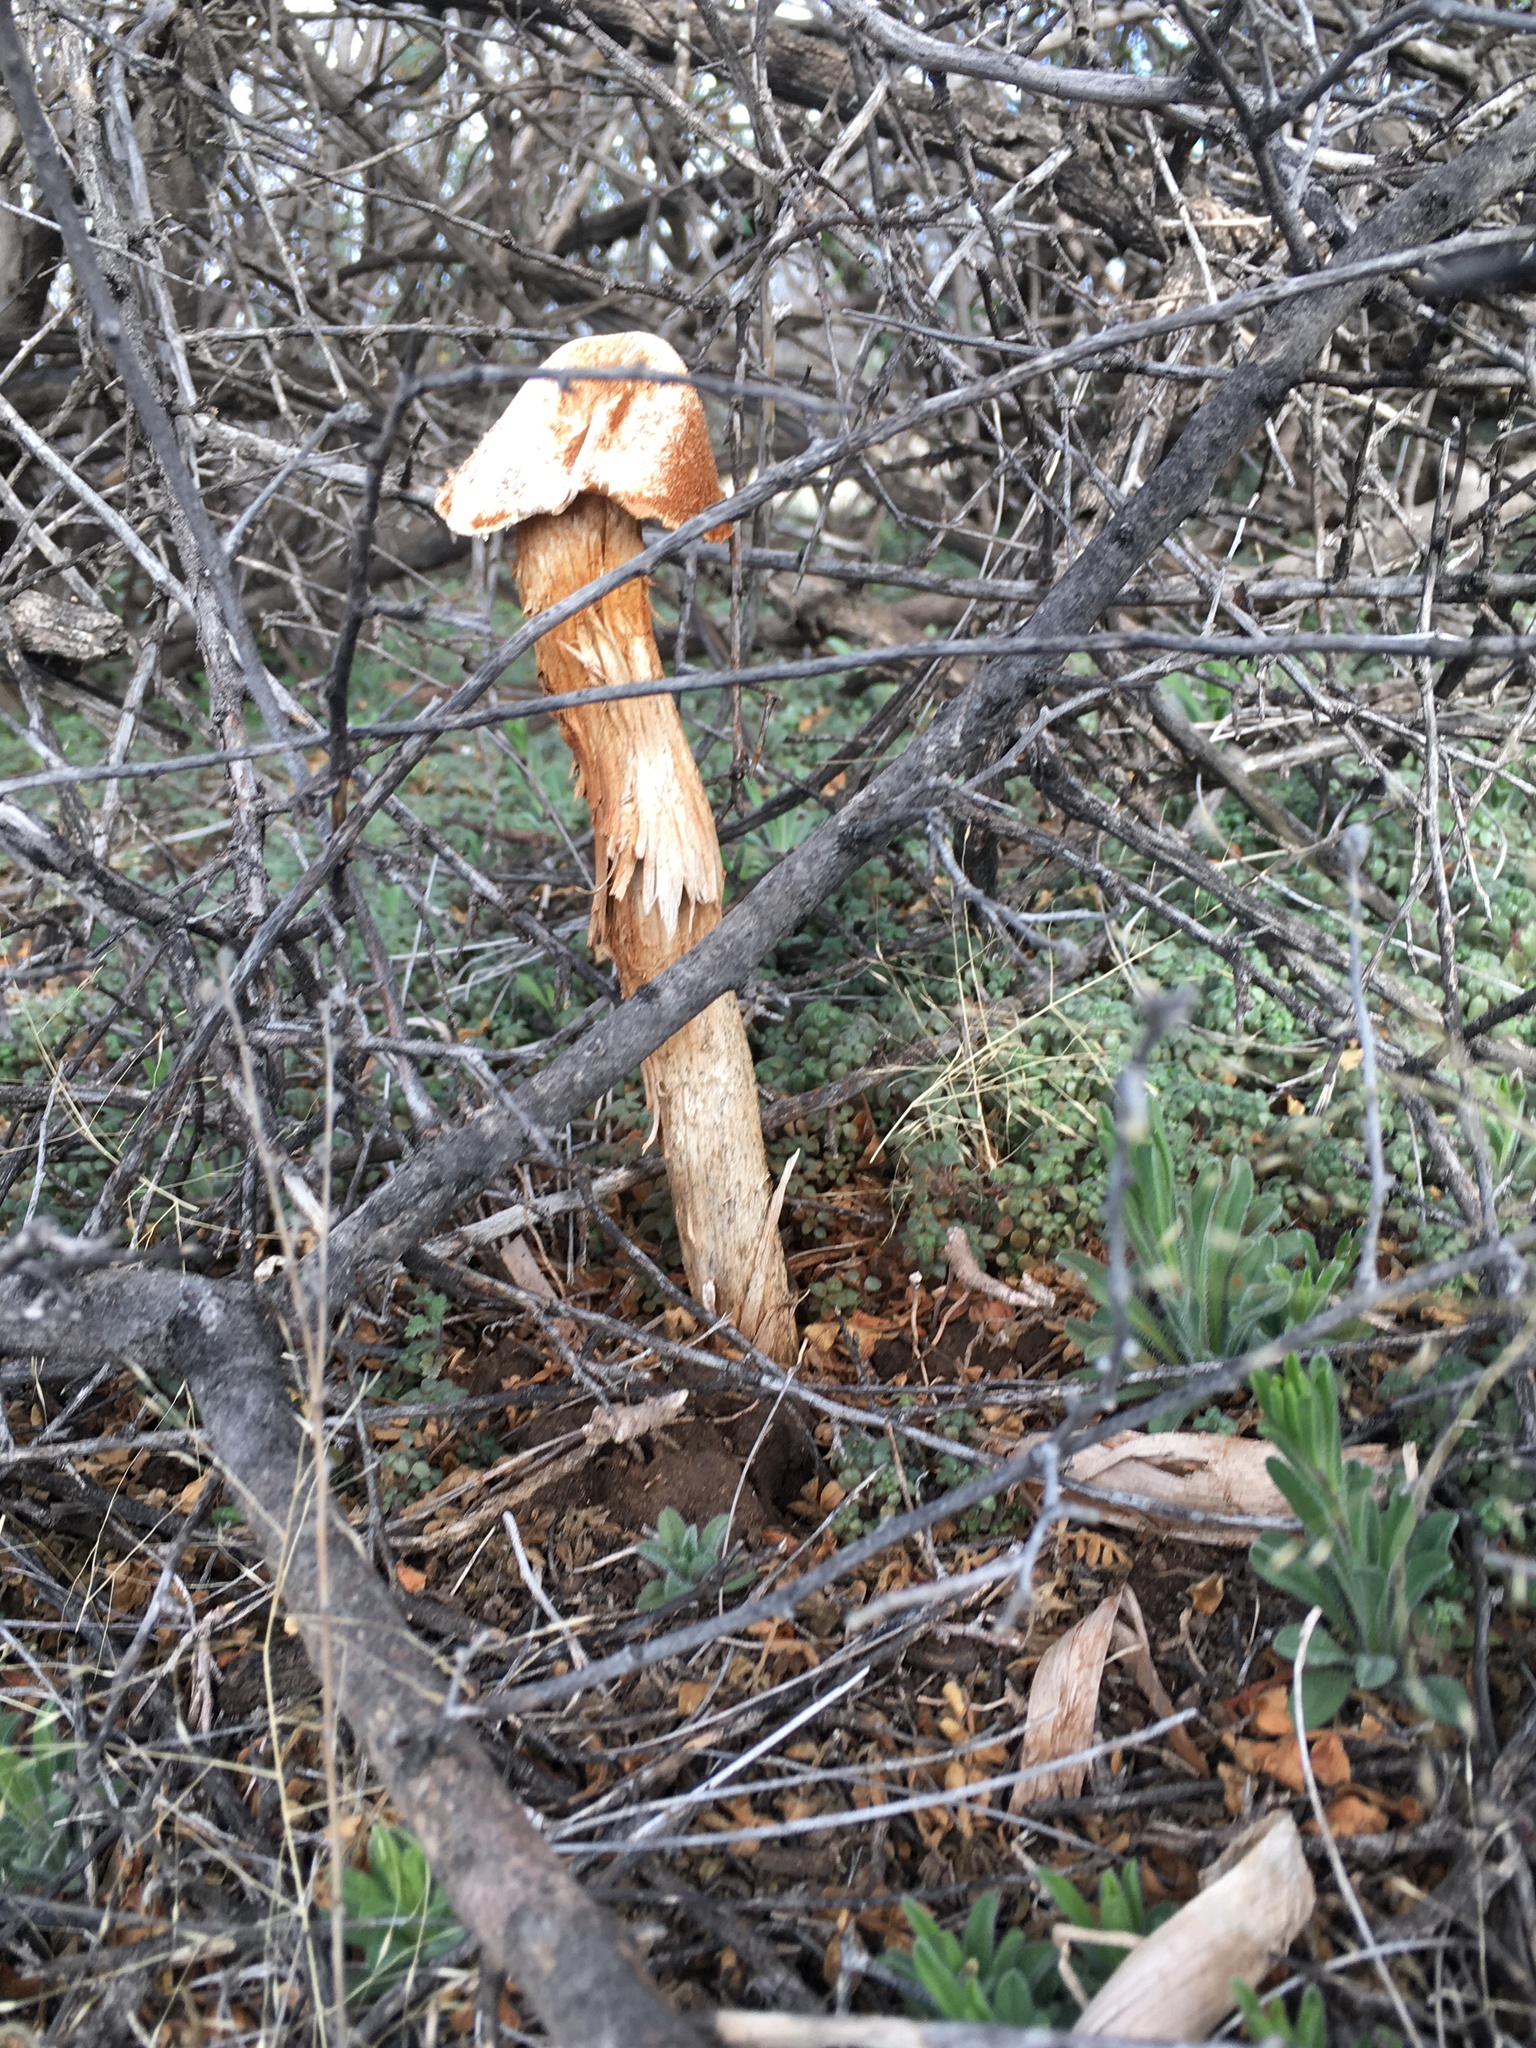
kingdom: Fungi
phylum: Basidiomycota
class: Agaricomycetes
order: Agaricales
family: Agaricaceae
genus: Battarrea
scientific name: Battarrea phalloides
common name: Sandy stiltball
